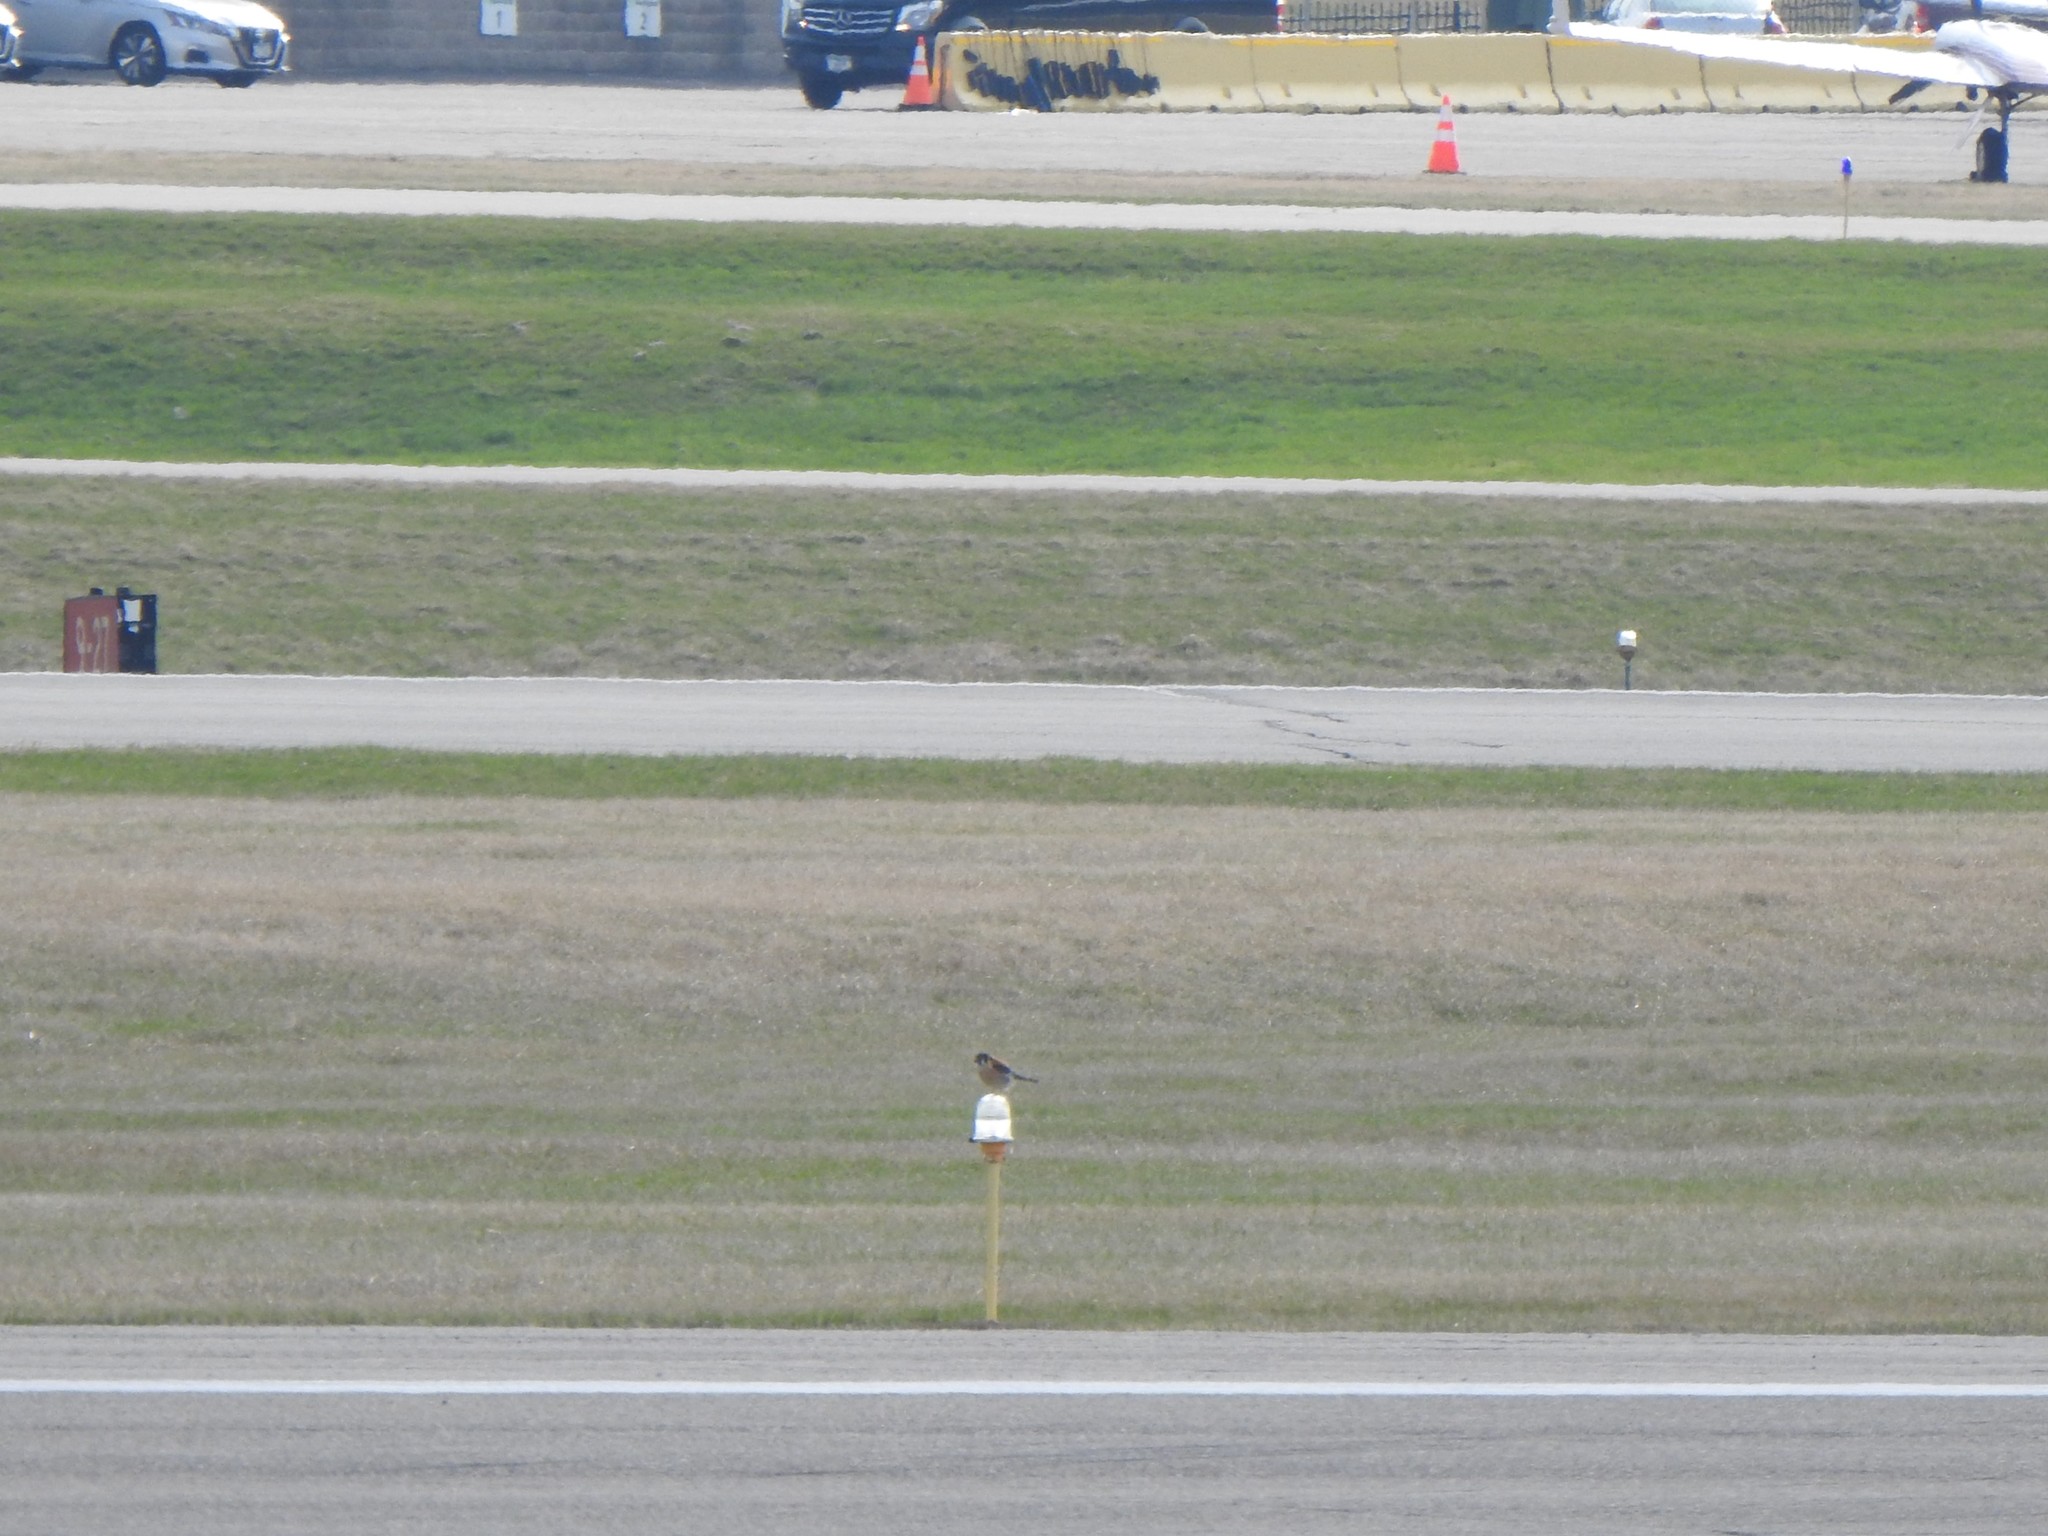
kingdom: Animalia
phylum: Chordata
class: Aves
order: Falconiformes
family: Falconidae
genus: Falco
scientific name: Falco sparverius
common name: American kestrel
